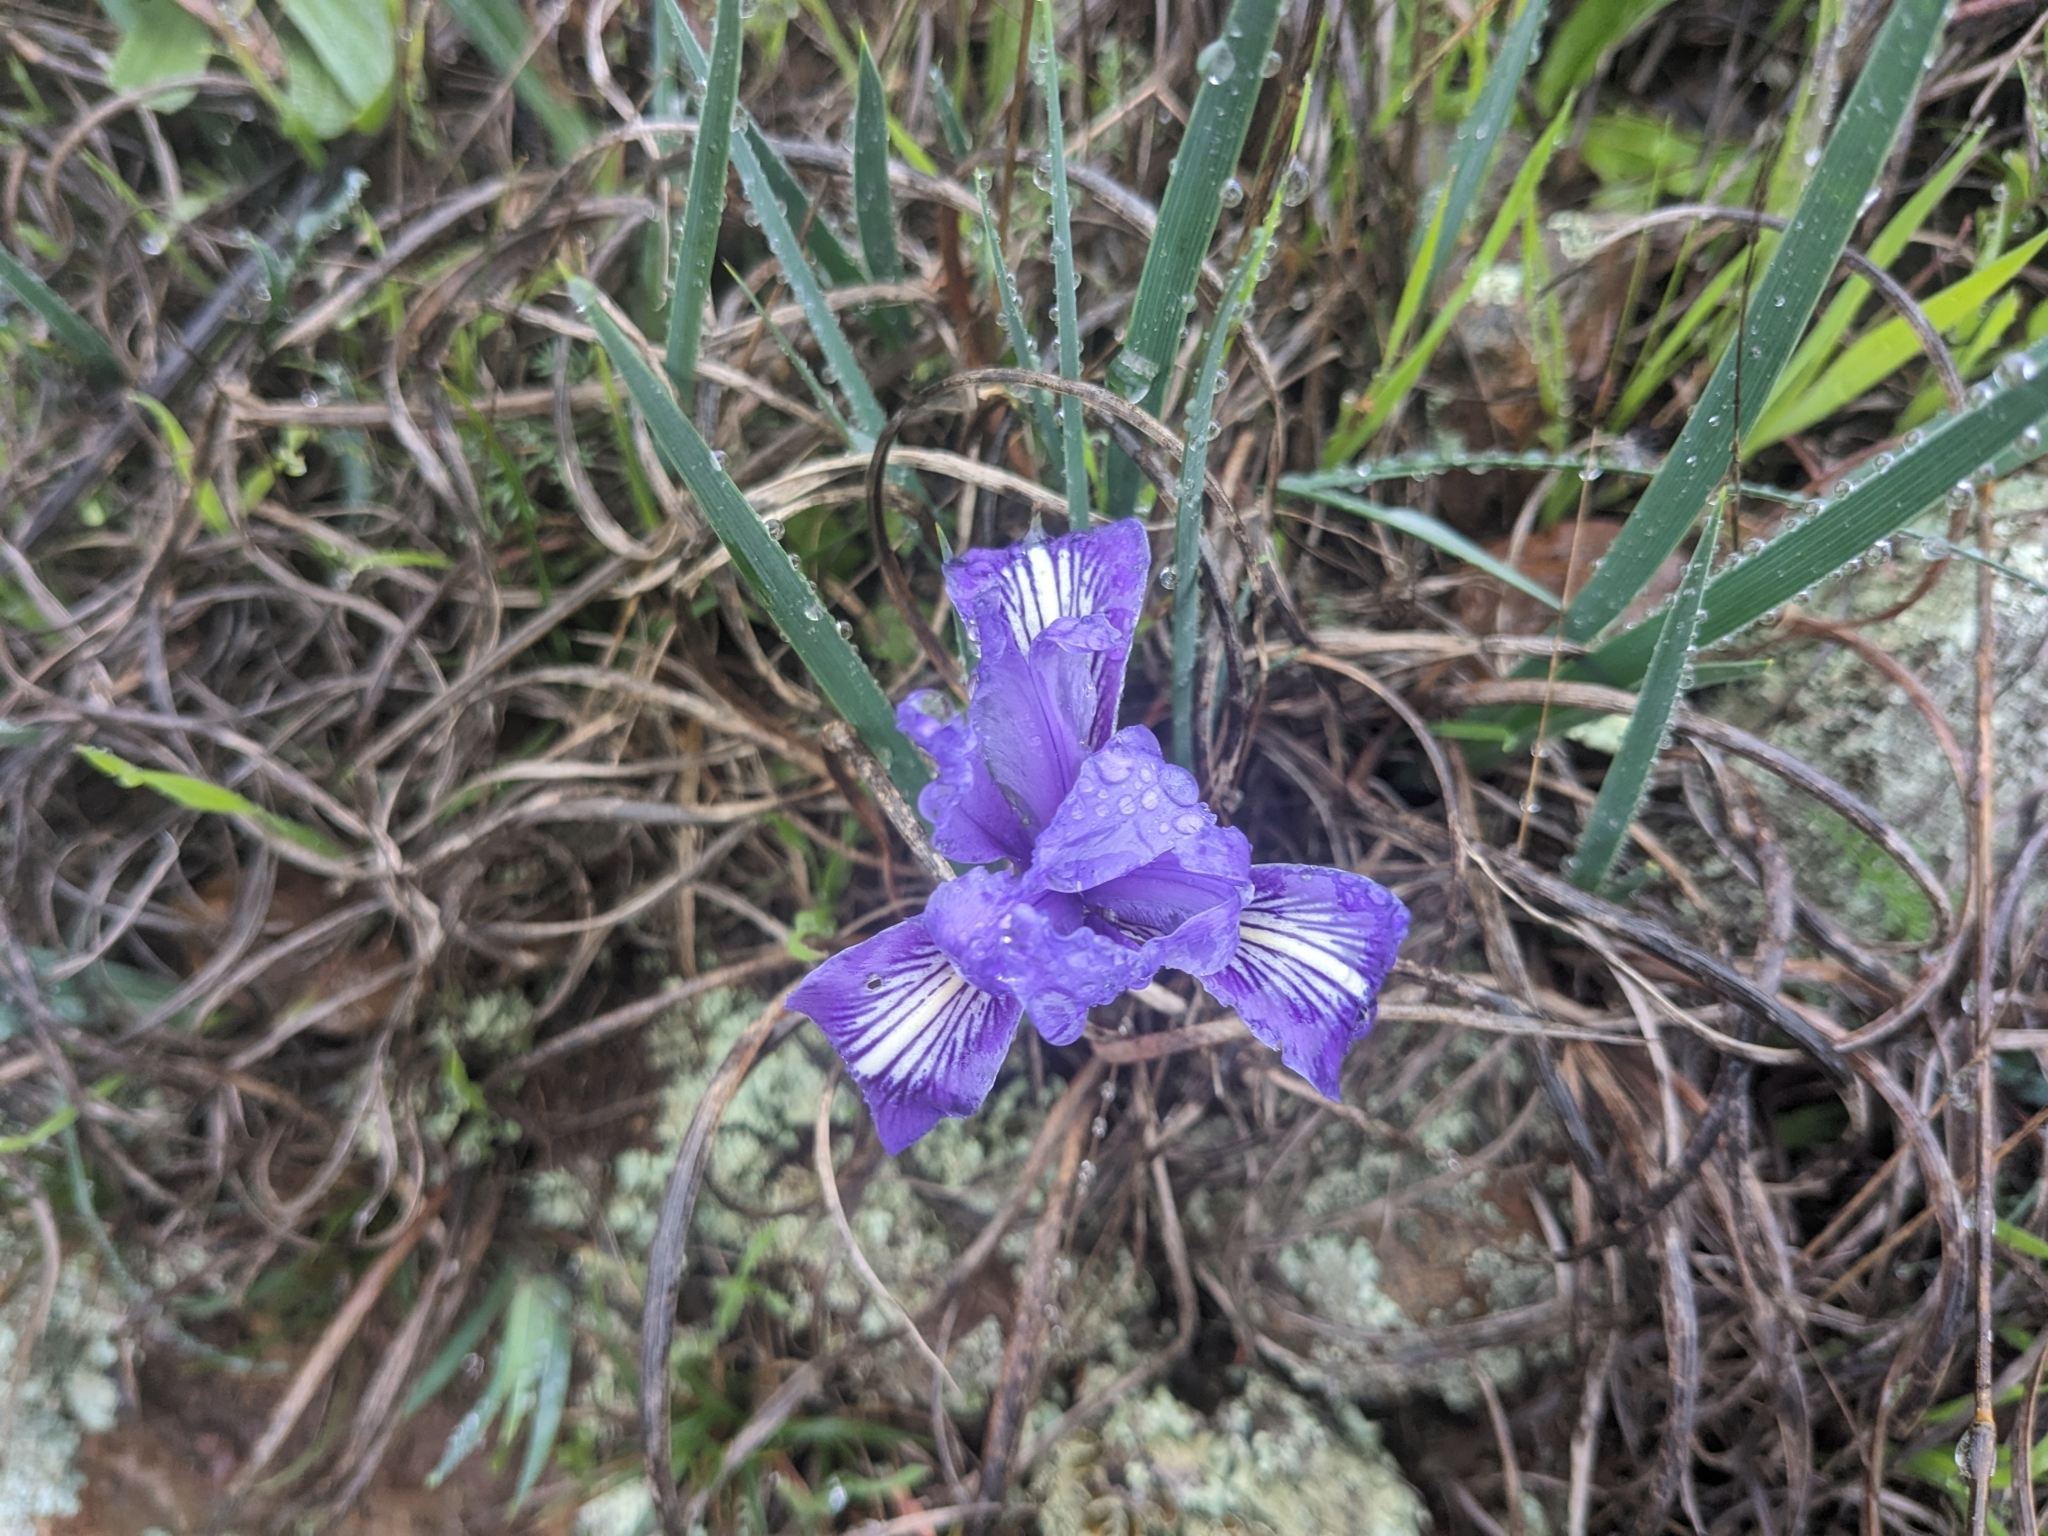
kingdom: Plantae
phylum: Tracheophyta
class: Liliopsida
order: Asparagales
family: Iridaceae
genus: Iris
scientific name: Iris macrosiphon
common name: Ground iris
